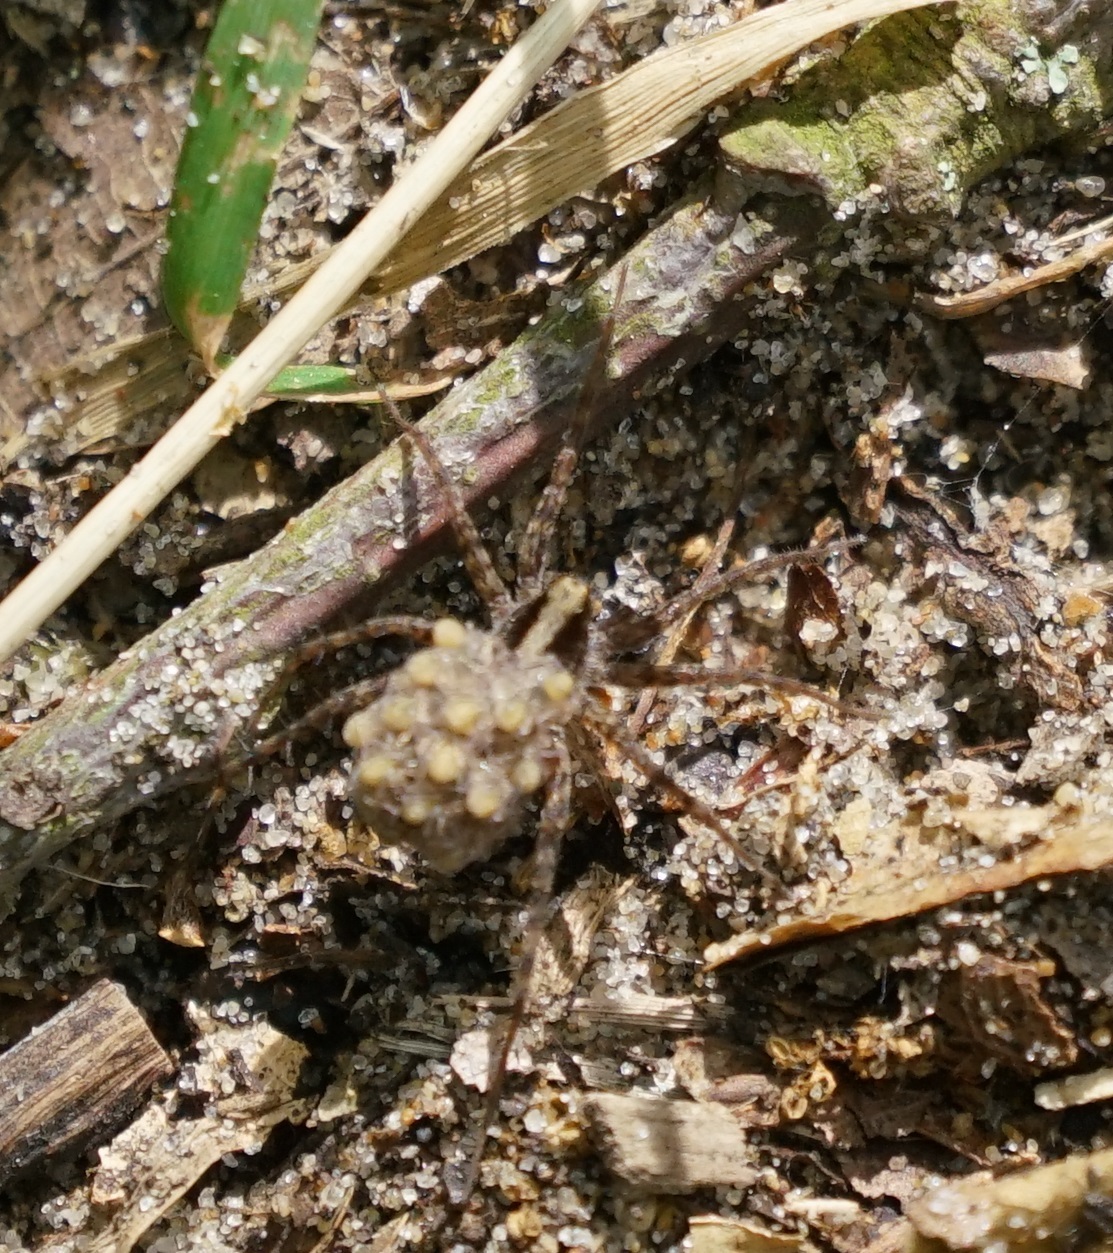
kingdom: Animalia
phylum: Arthropoda
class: Arachnida
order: Araneae
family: Lycosidae
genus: Pardosa
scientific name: Pardosa
